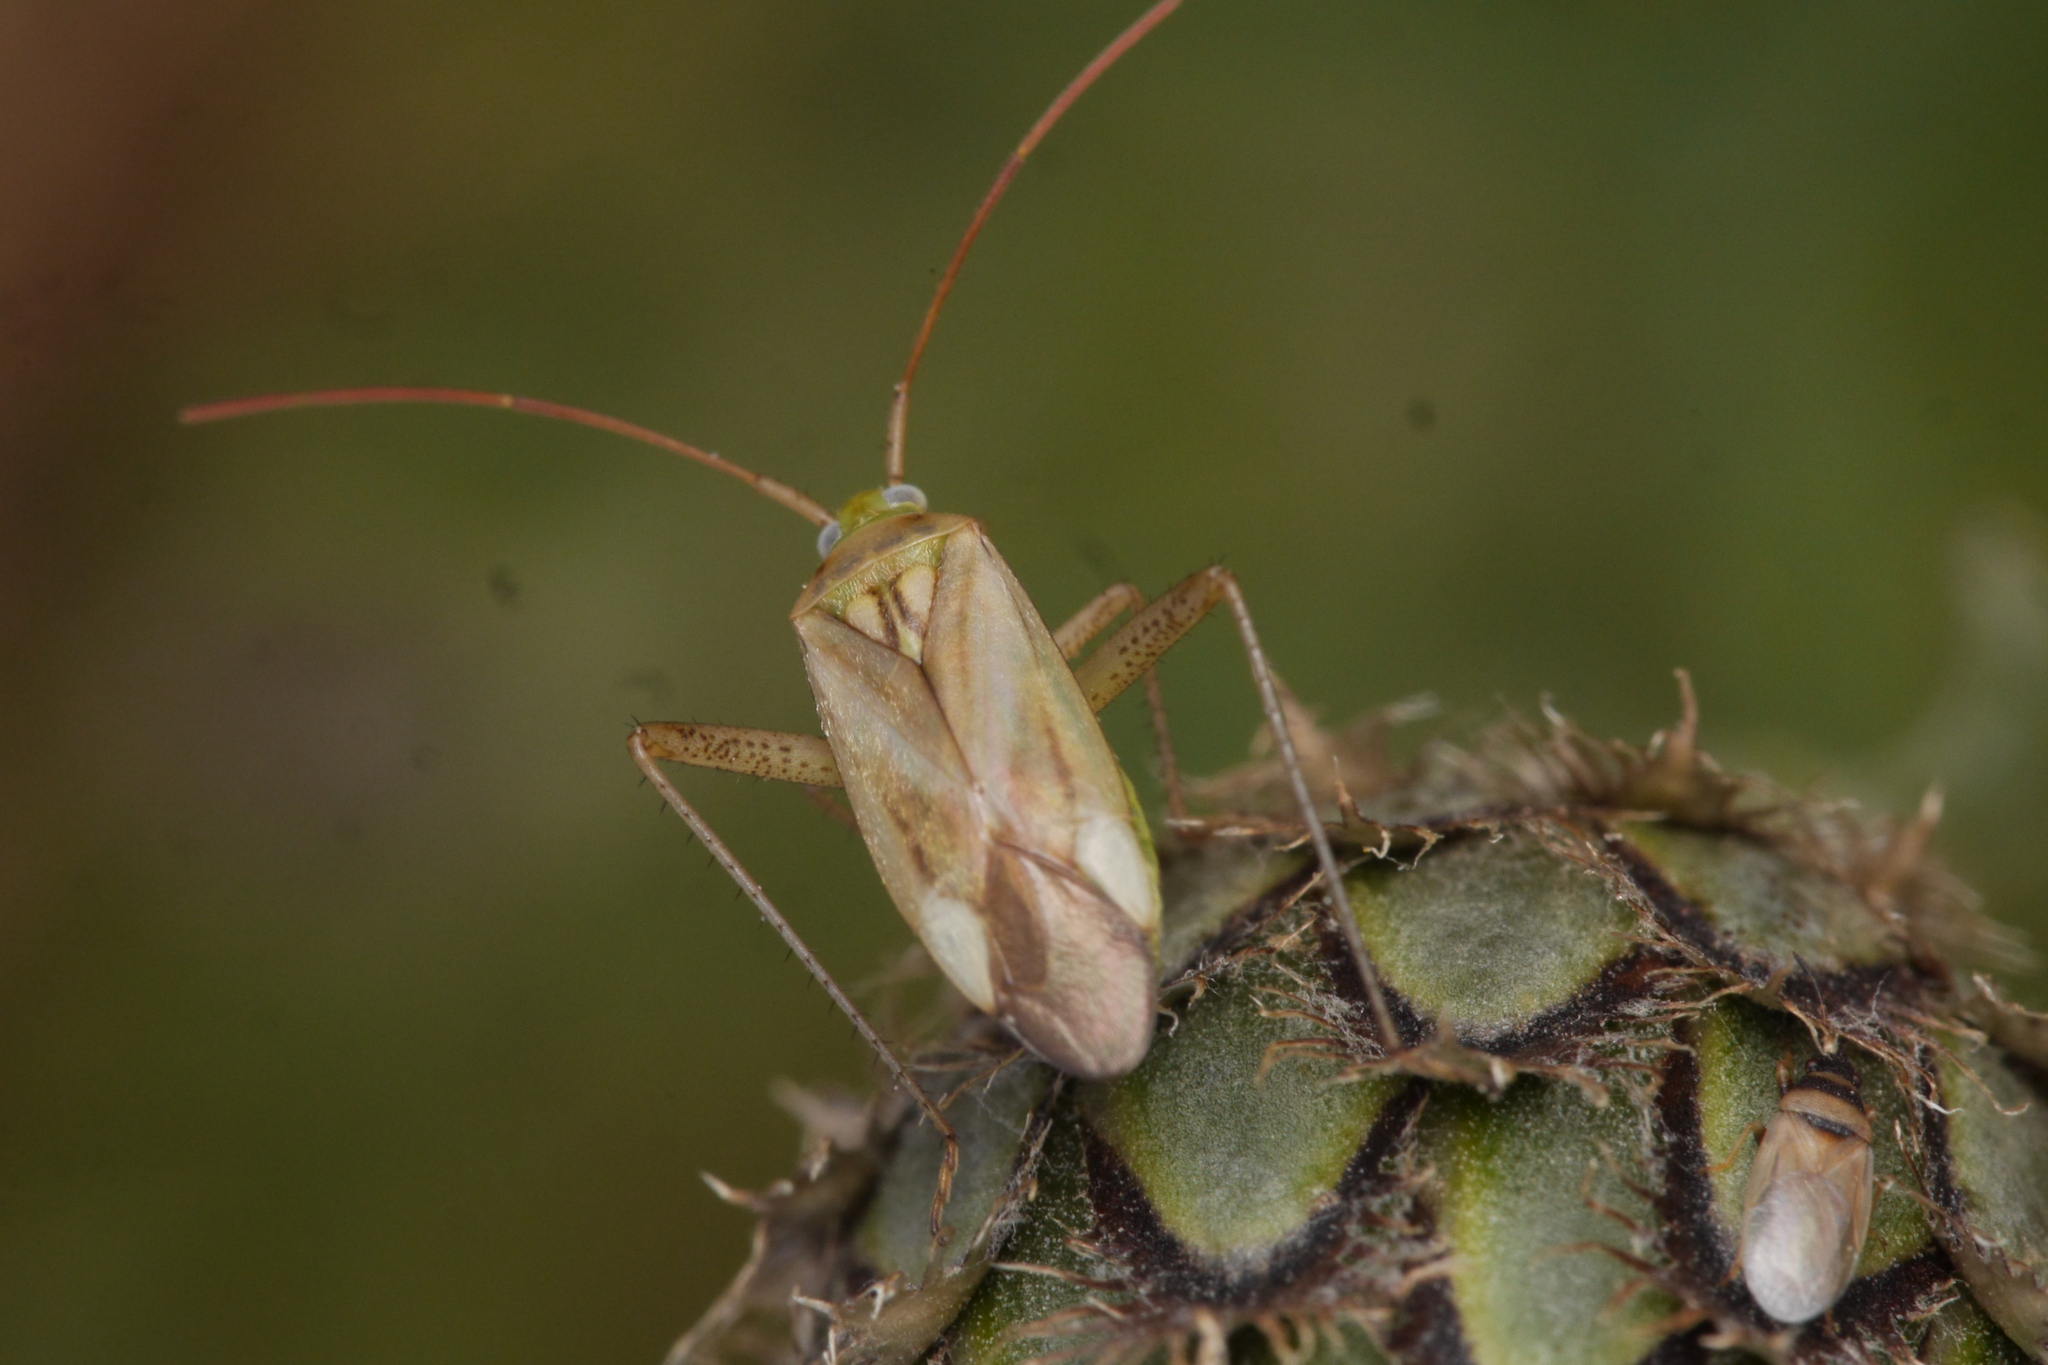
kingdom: Animalia
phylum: Arthropoda
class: Insecta
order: Hemiptera
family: Miridae
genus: Adelphocoris
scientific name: Adelphocoris lineolatus
